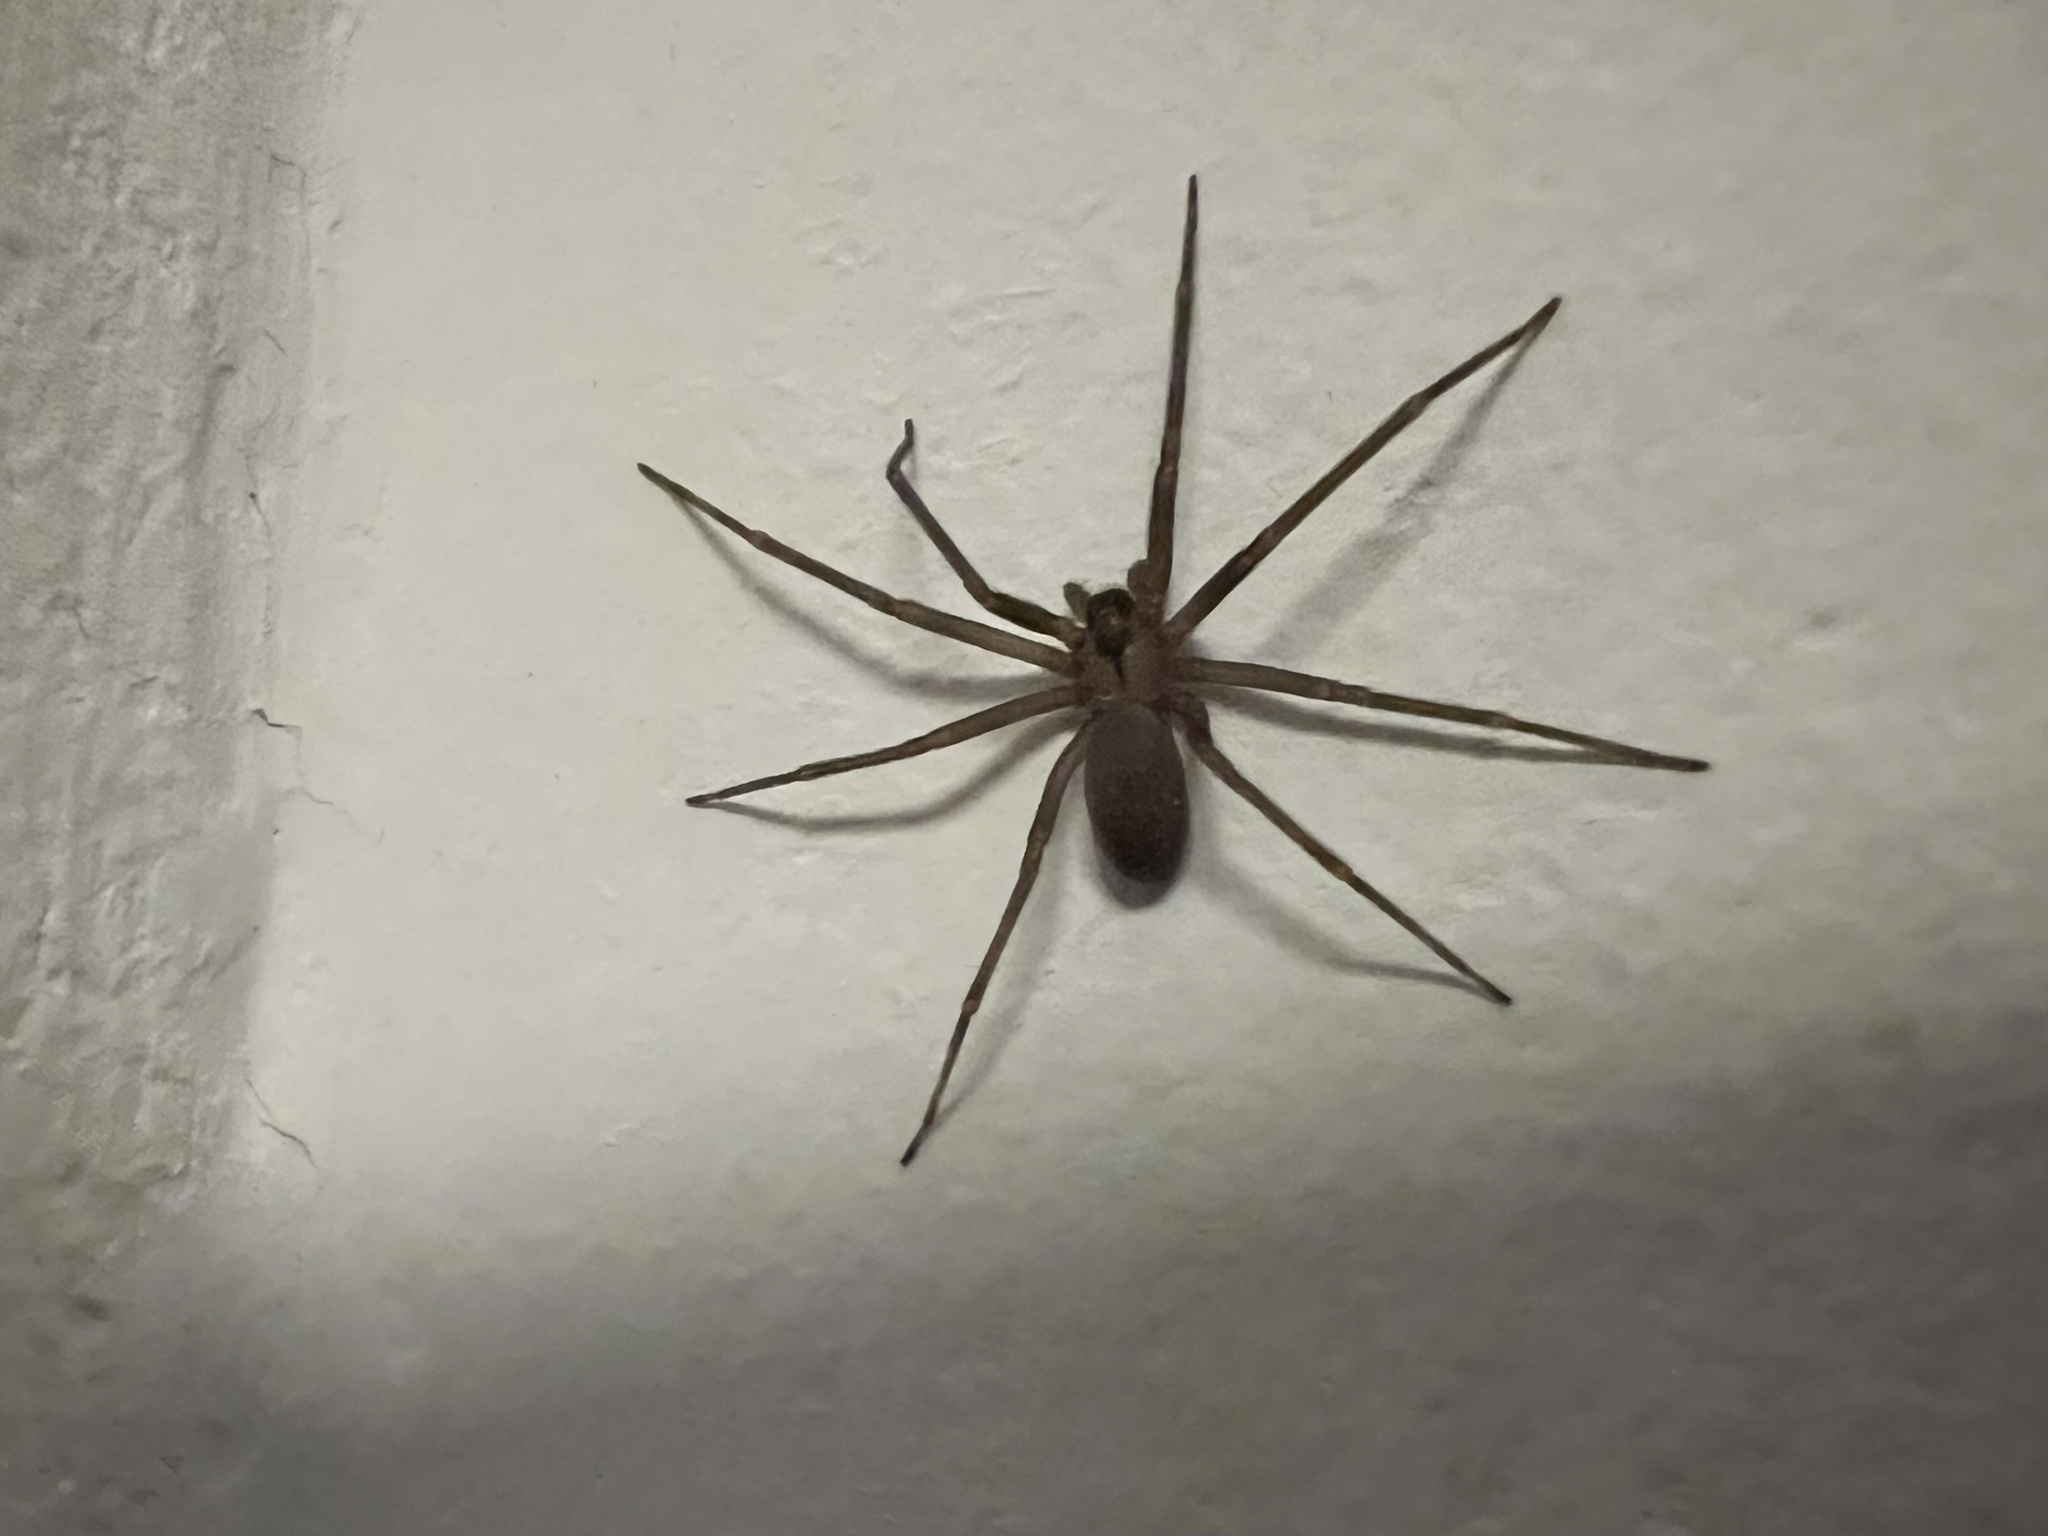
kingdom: Animalia
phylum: Arthropoda
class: Arachnida
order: Araneae
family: Sicariidae
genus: Loxosceles
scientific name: Loxosceles reclusa
